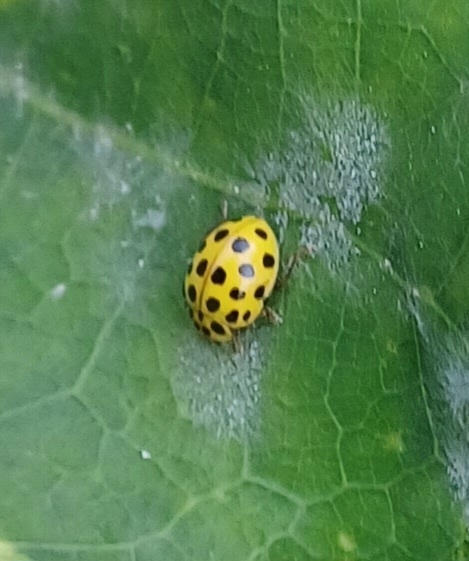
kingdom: Animalia
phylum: Arthropoda
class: Insecta
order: Coleoptera
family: Coccinellidae
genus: Psyllobora
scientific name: Psyllobora vigintiduopunctata
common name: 22-spot ladybird
